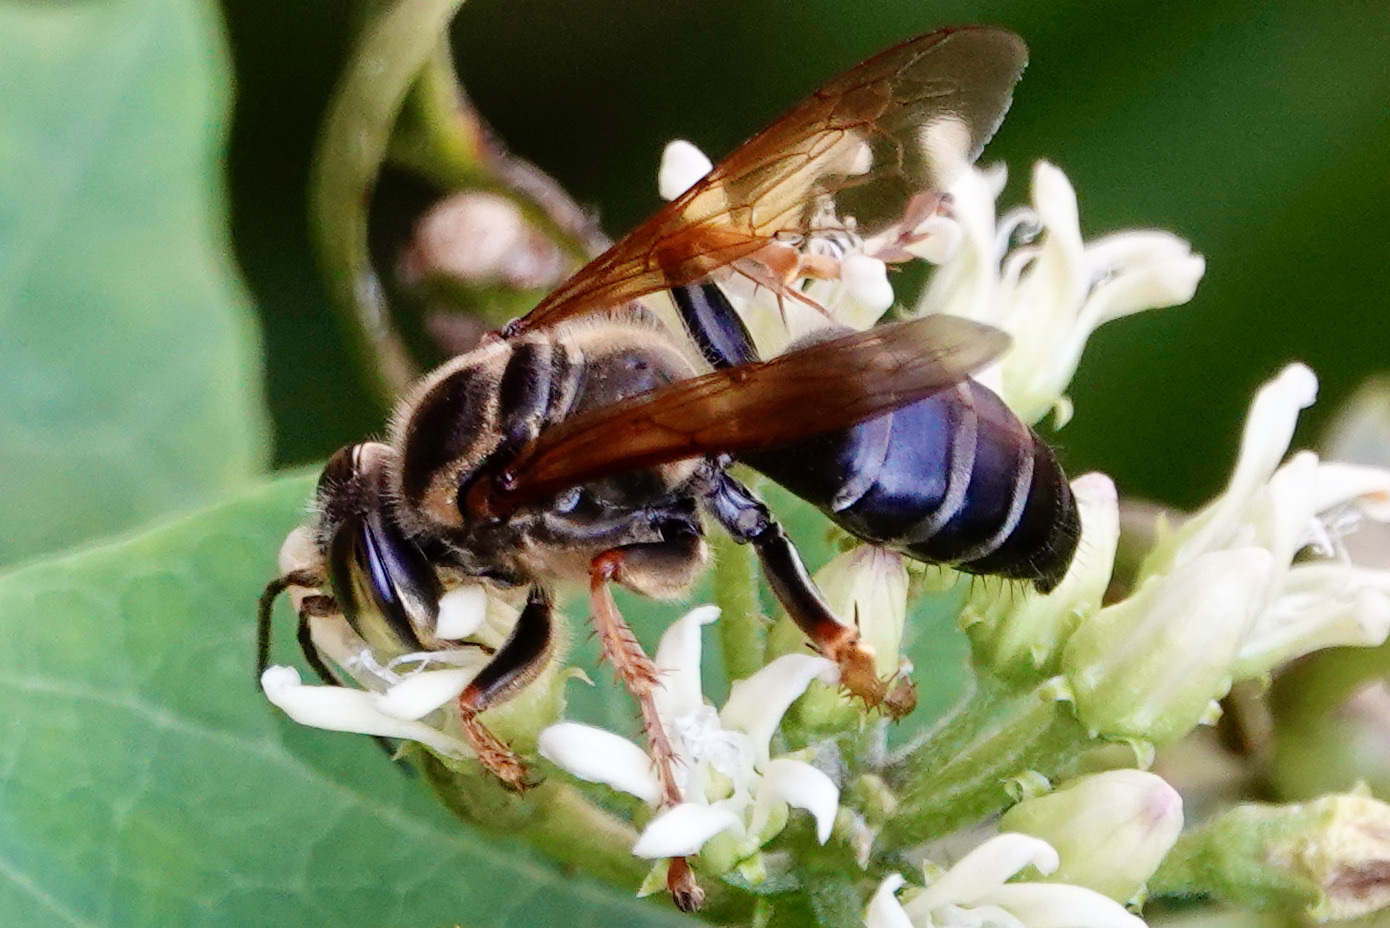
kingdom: Animalia
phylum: Arthropoda
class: Insecta
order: Hymenoptera
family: Crabronidae
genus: Tachytes
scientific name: Tachytes crassus
